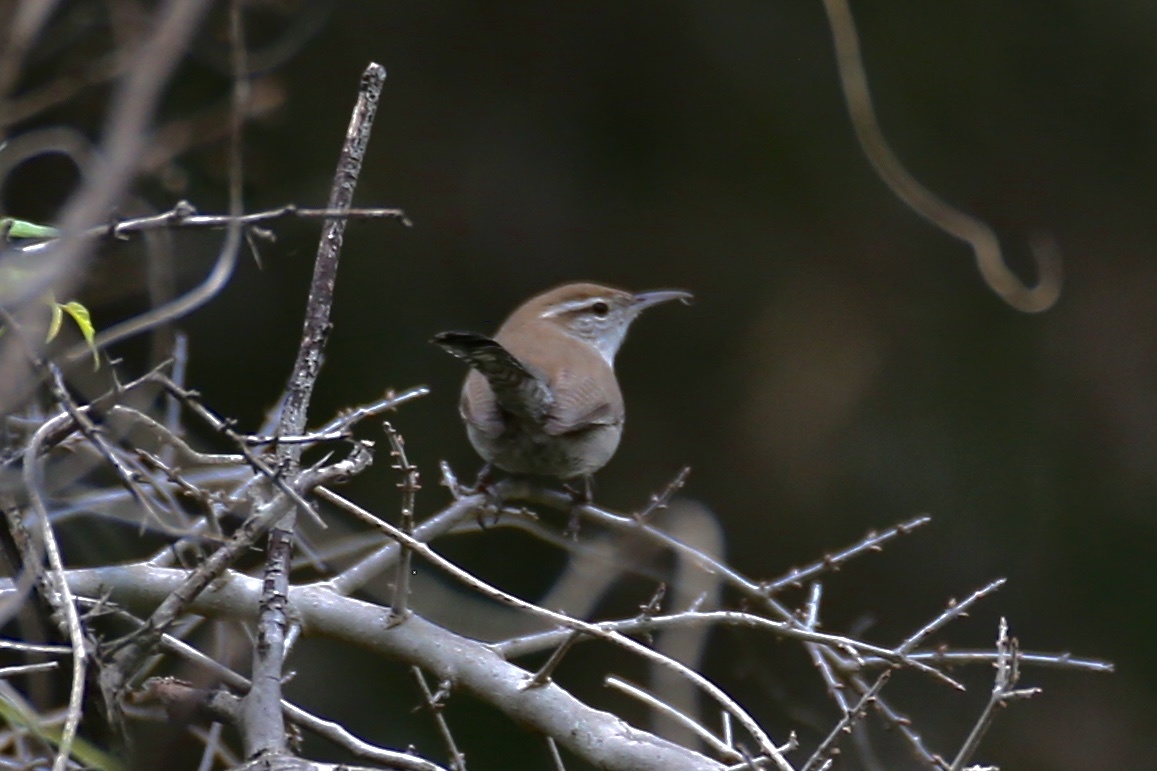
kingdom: Animalia
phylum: Chordata
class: Aves
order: Passeriformes
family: Troglodytidae
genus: Thryomanes
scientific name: Thryomanes bewickii
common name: Bewick's wren
